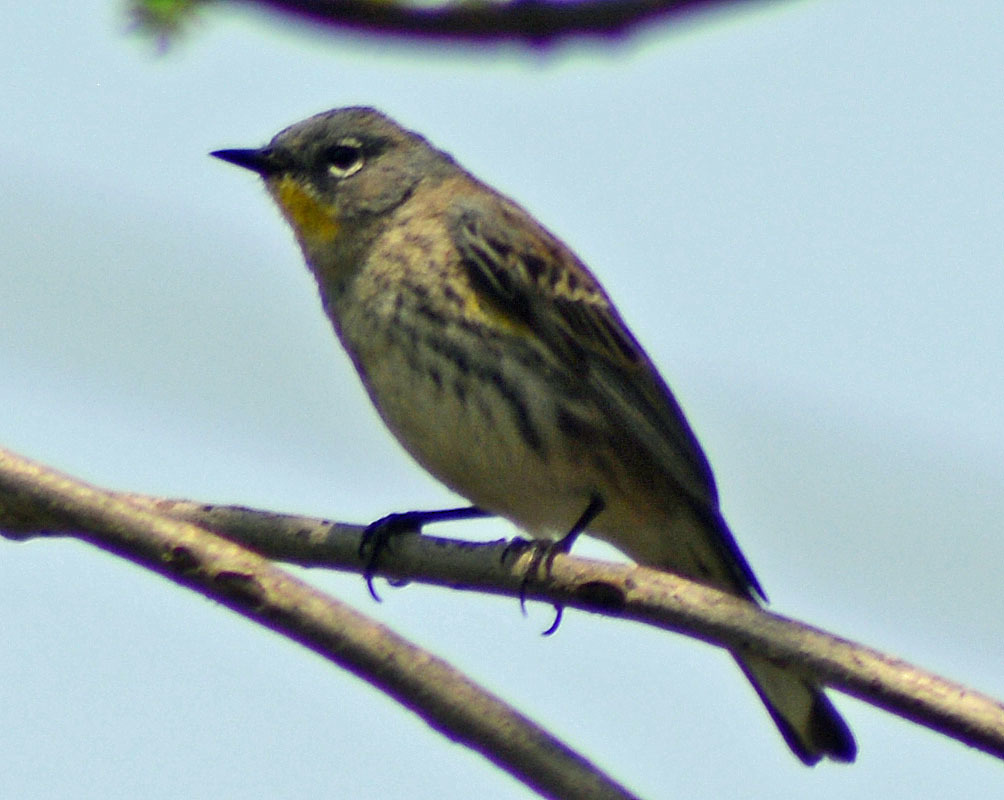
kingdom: Animalia
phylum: Chordata
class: Aves
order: Passeriformes
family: Parulidae
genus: Setophaga
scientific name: Setophaga coronata
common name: Myrtle warbler
